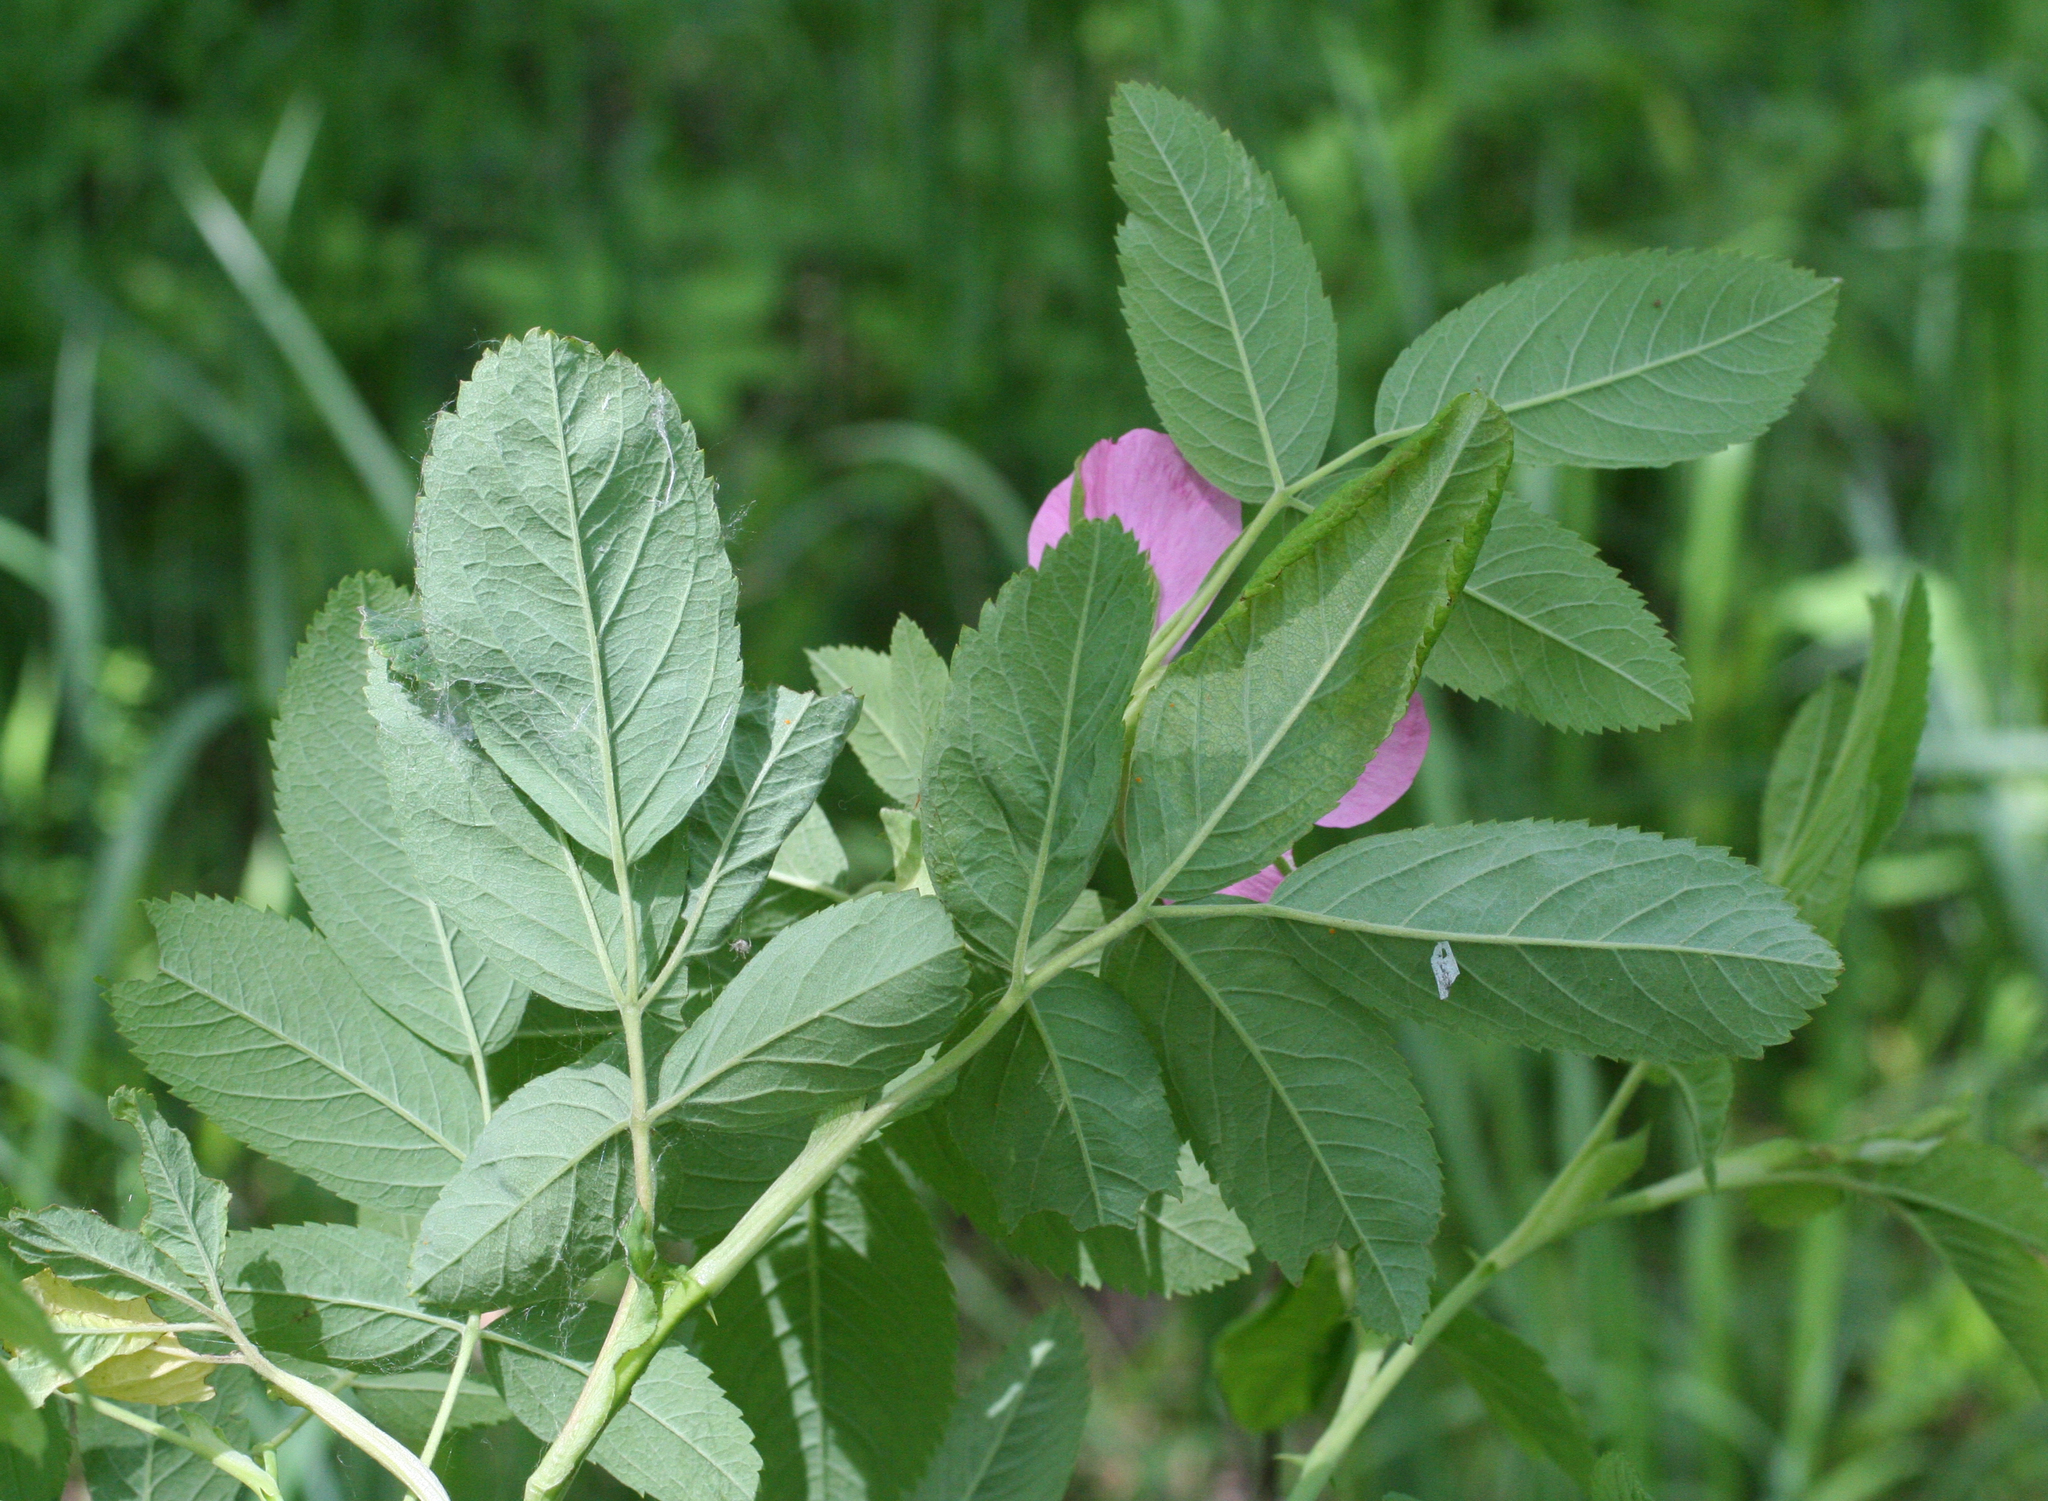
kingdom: Plantae
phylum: Tracheophyta
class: Magnoliopsida
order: Rosales
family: Rosaceae
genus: Rosa
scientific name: Rosa majalis
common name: Cinnamon rose
